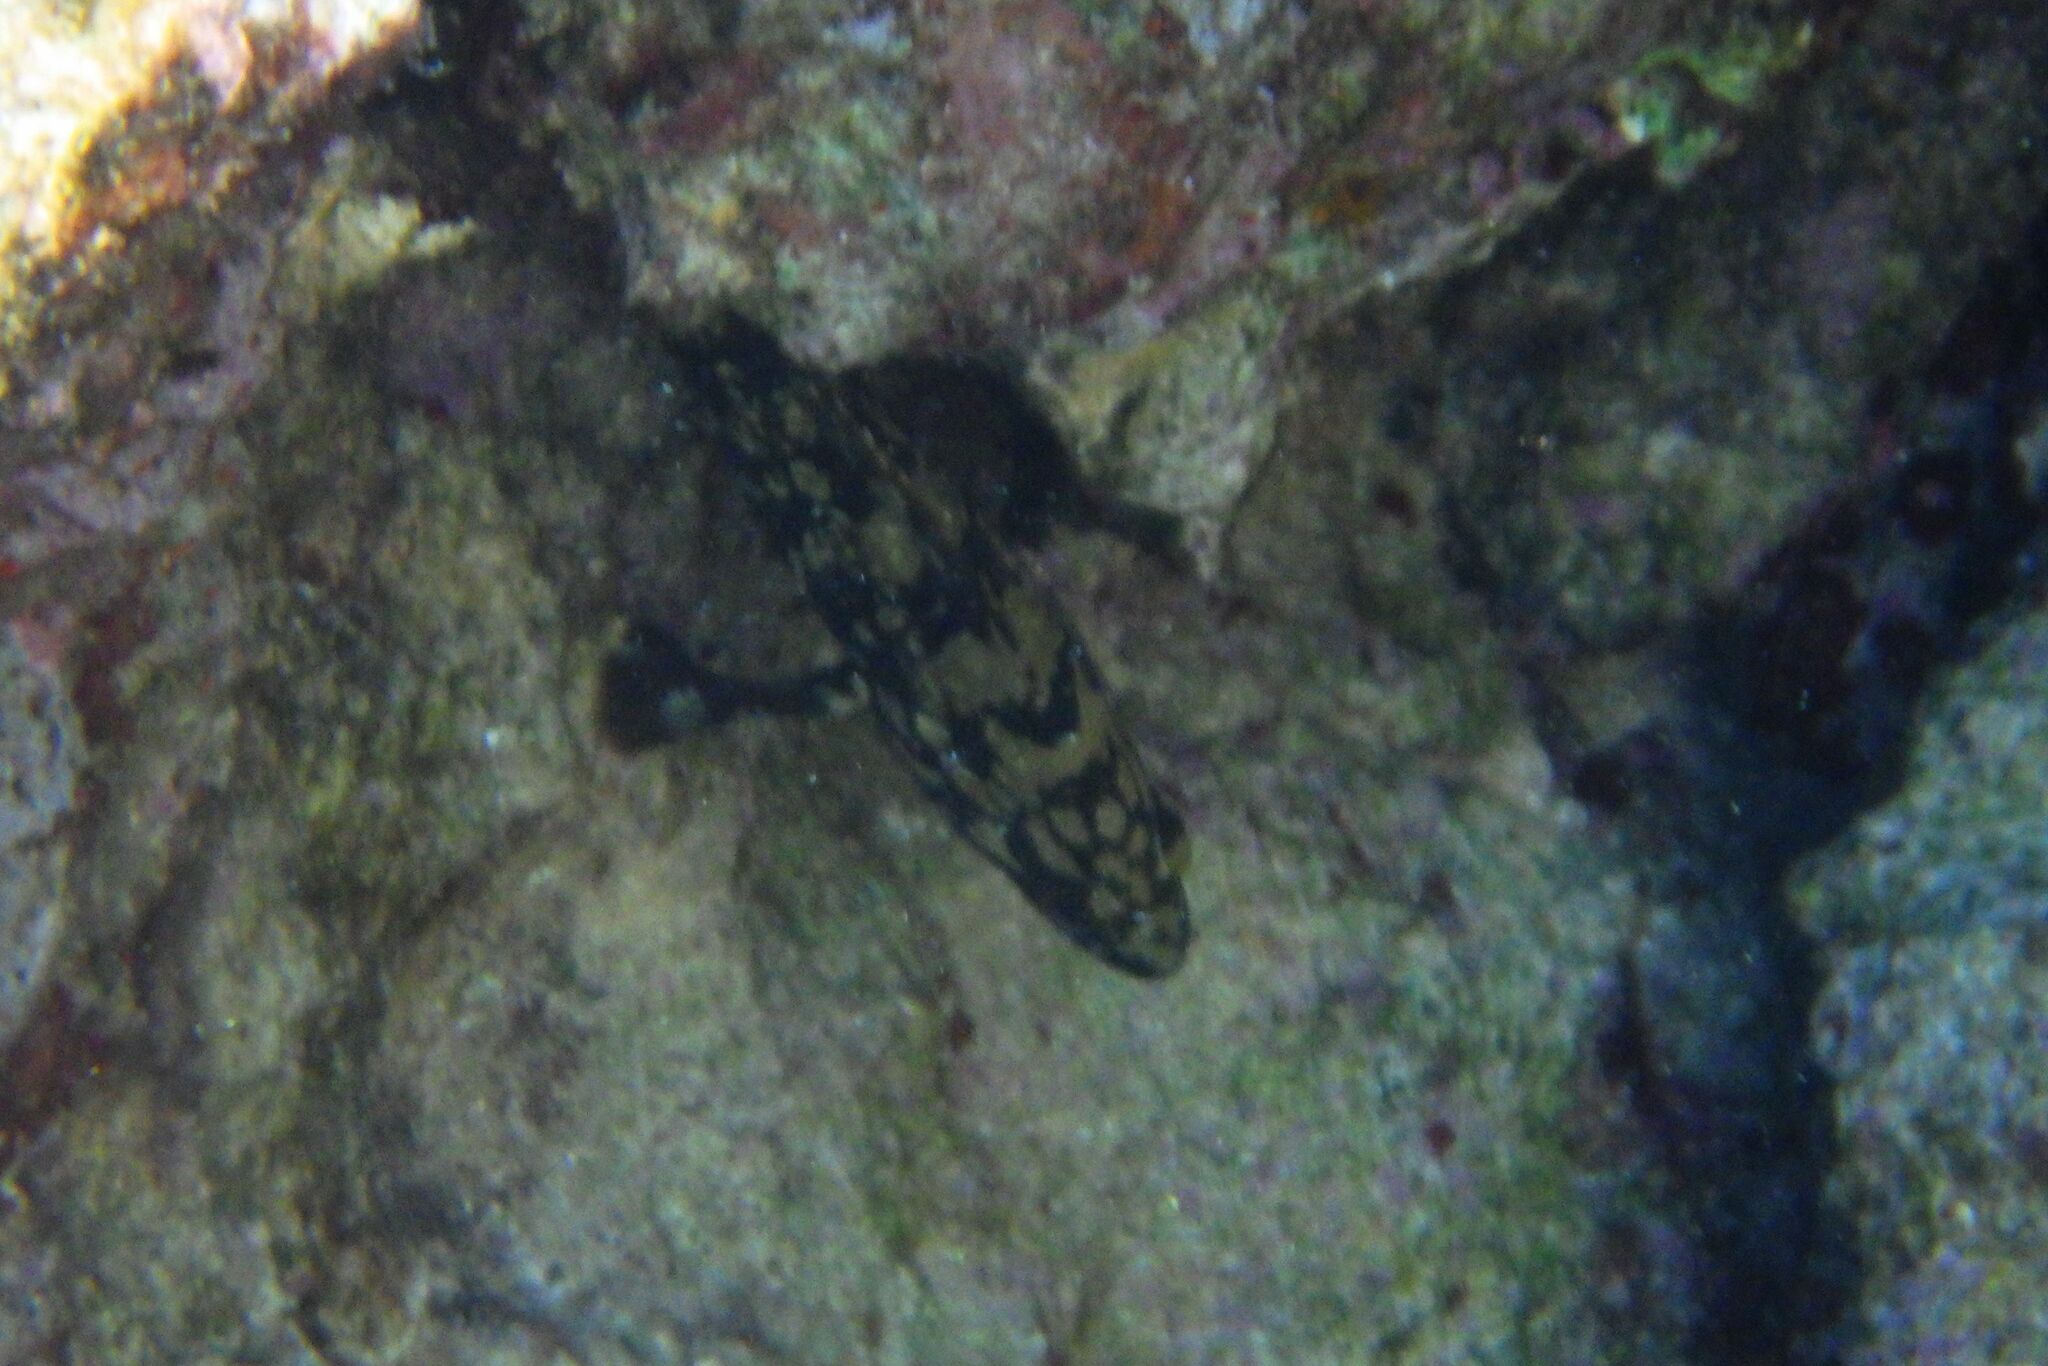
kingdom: Animalia
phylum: Chordata
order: Perciformes
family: Serranidae
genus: Epinephelus
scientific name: Epinephelus marginatus
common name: Dusky grouper
